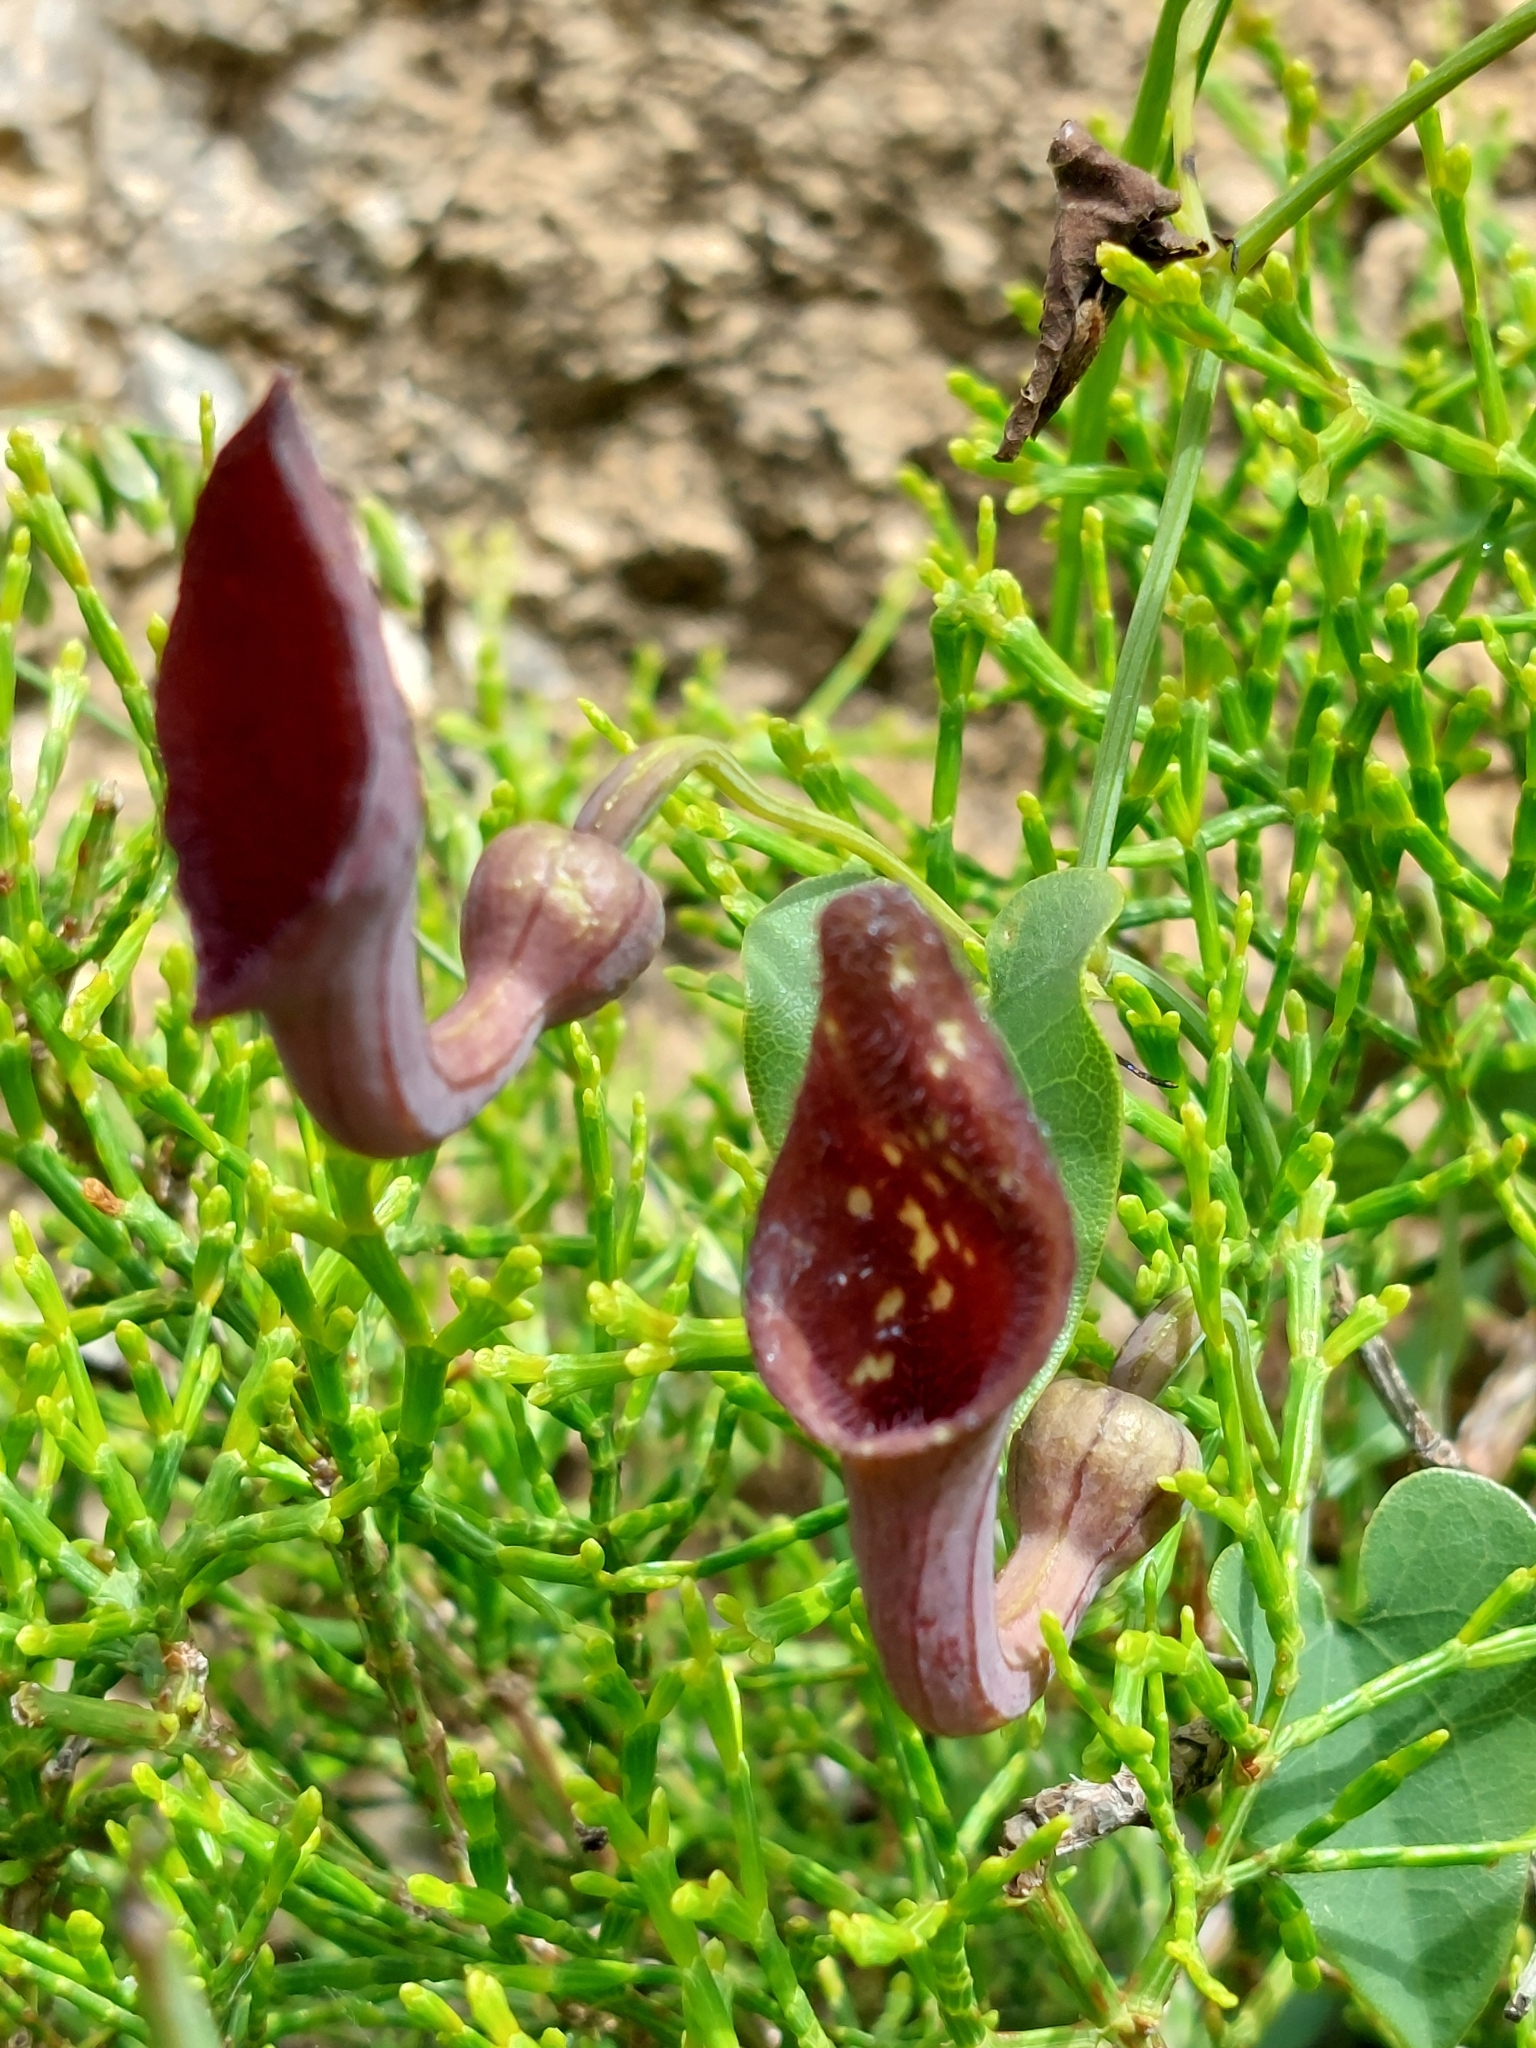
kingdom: Plantae
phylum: Tracheophyta
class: Magnoliopsida
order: Piperales
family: Aristolochiaceae
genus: Aristolochia
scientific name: Aristolochia baetica
